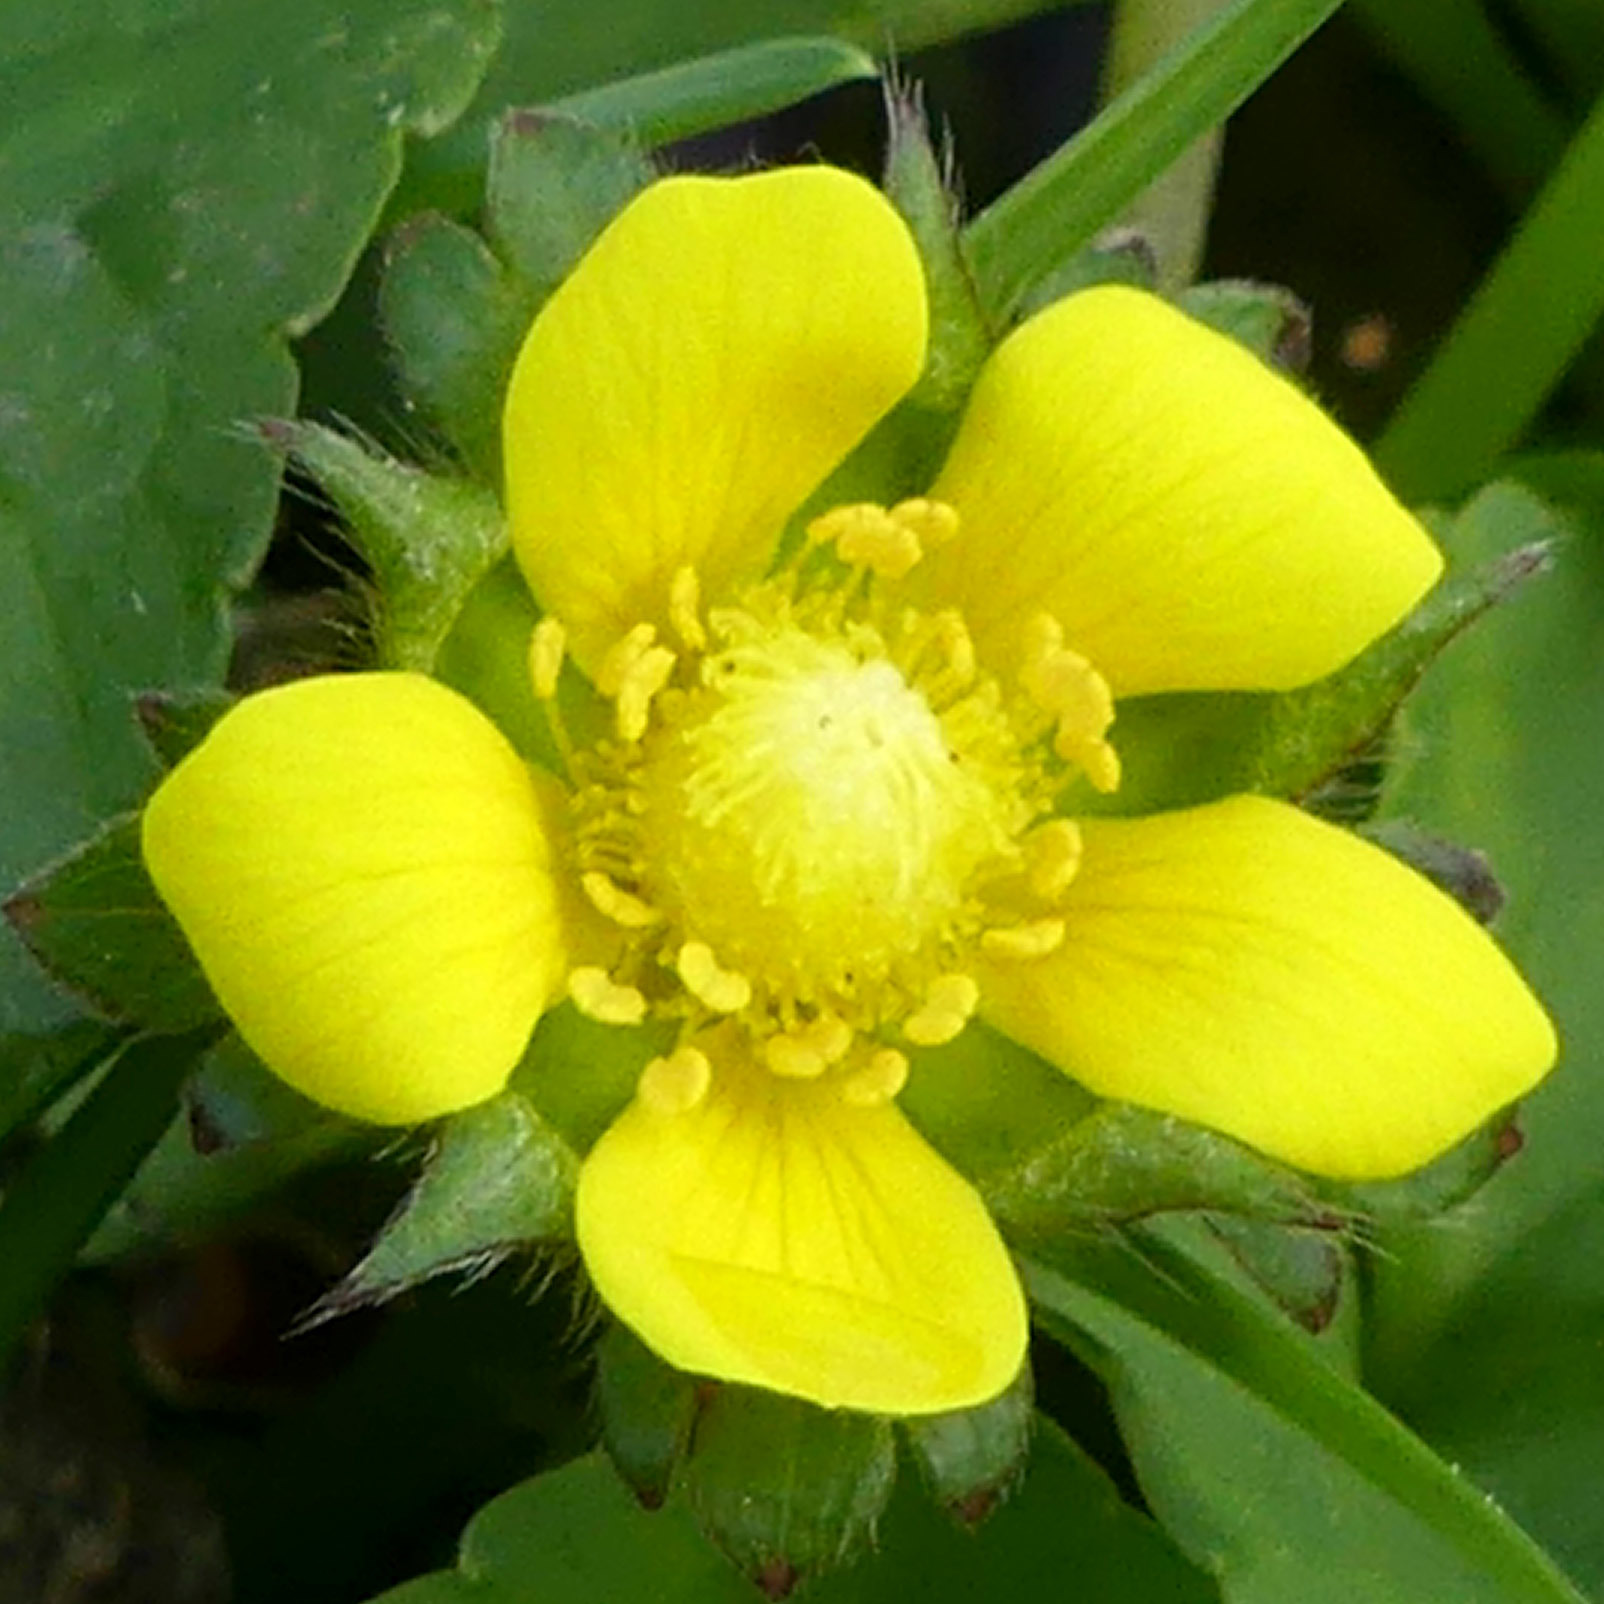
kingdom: Plantae
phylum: Tracheophyta
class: Magnoliopsida
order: Rosales
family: Rosaceae
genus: Potentilla
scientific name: Potentilla indica
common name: Yellow-flowered strawberry
